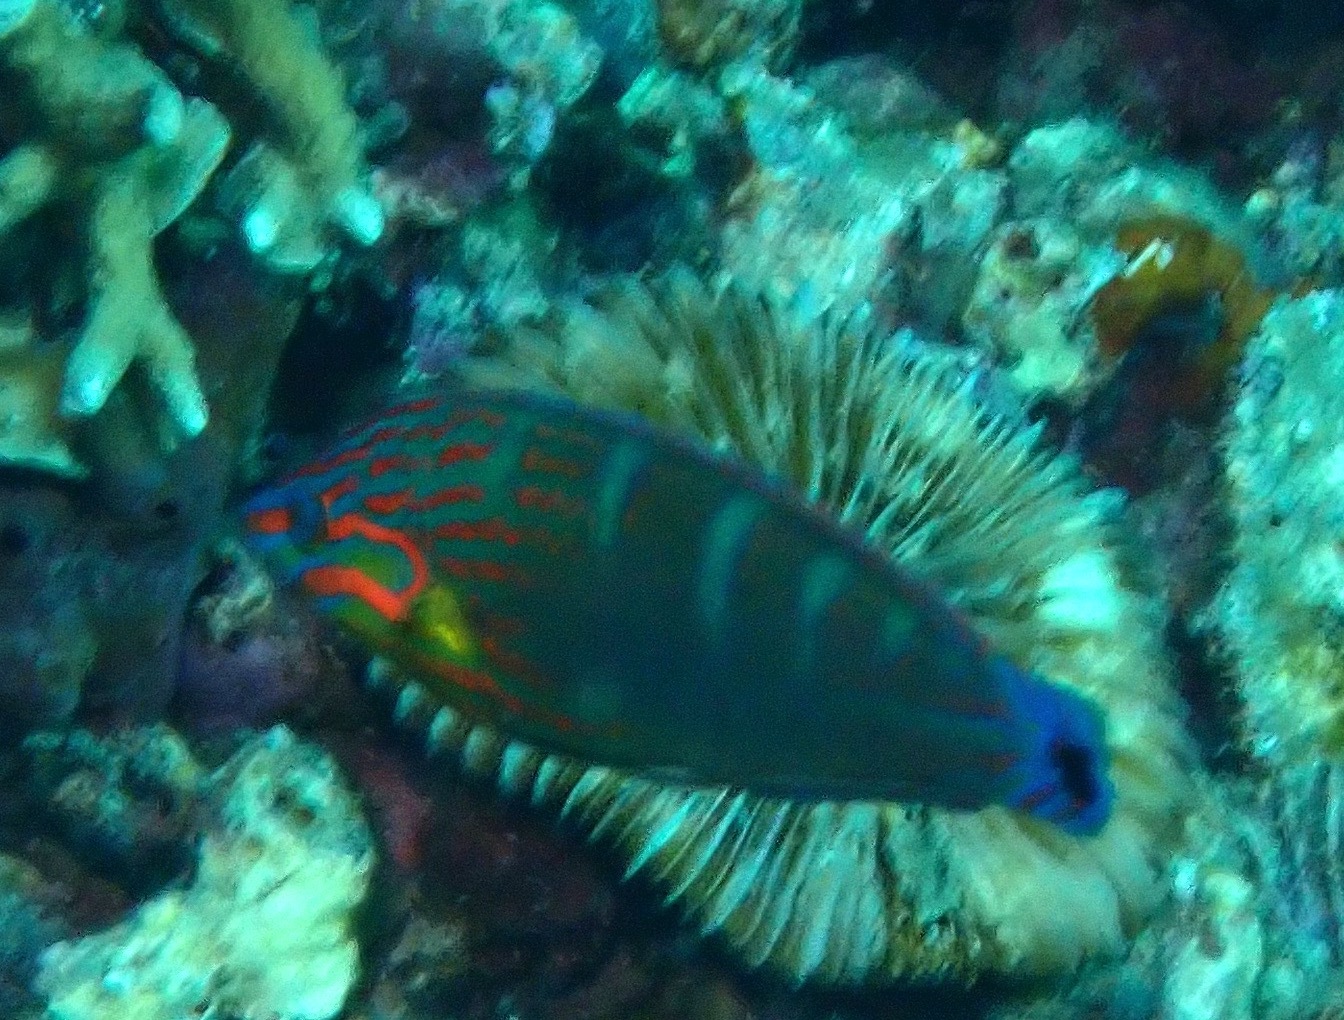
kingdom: Animalia
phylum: Chordata
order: Perciformes
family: Labridae
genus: Halichoeres
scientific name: Halichoeres melanurus
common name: Hoeven's wrasse
